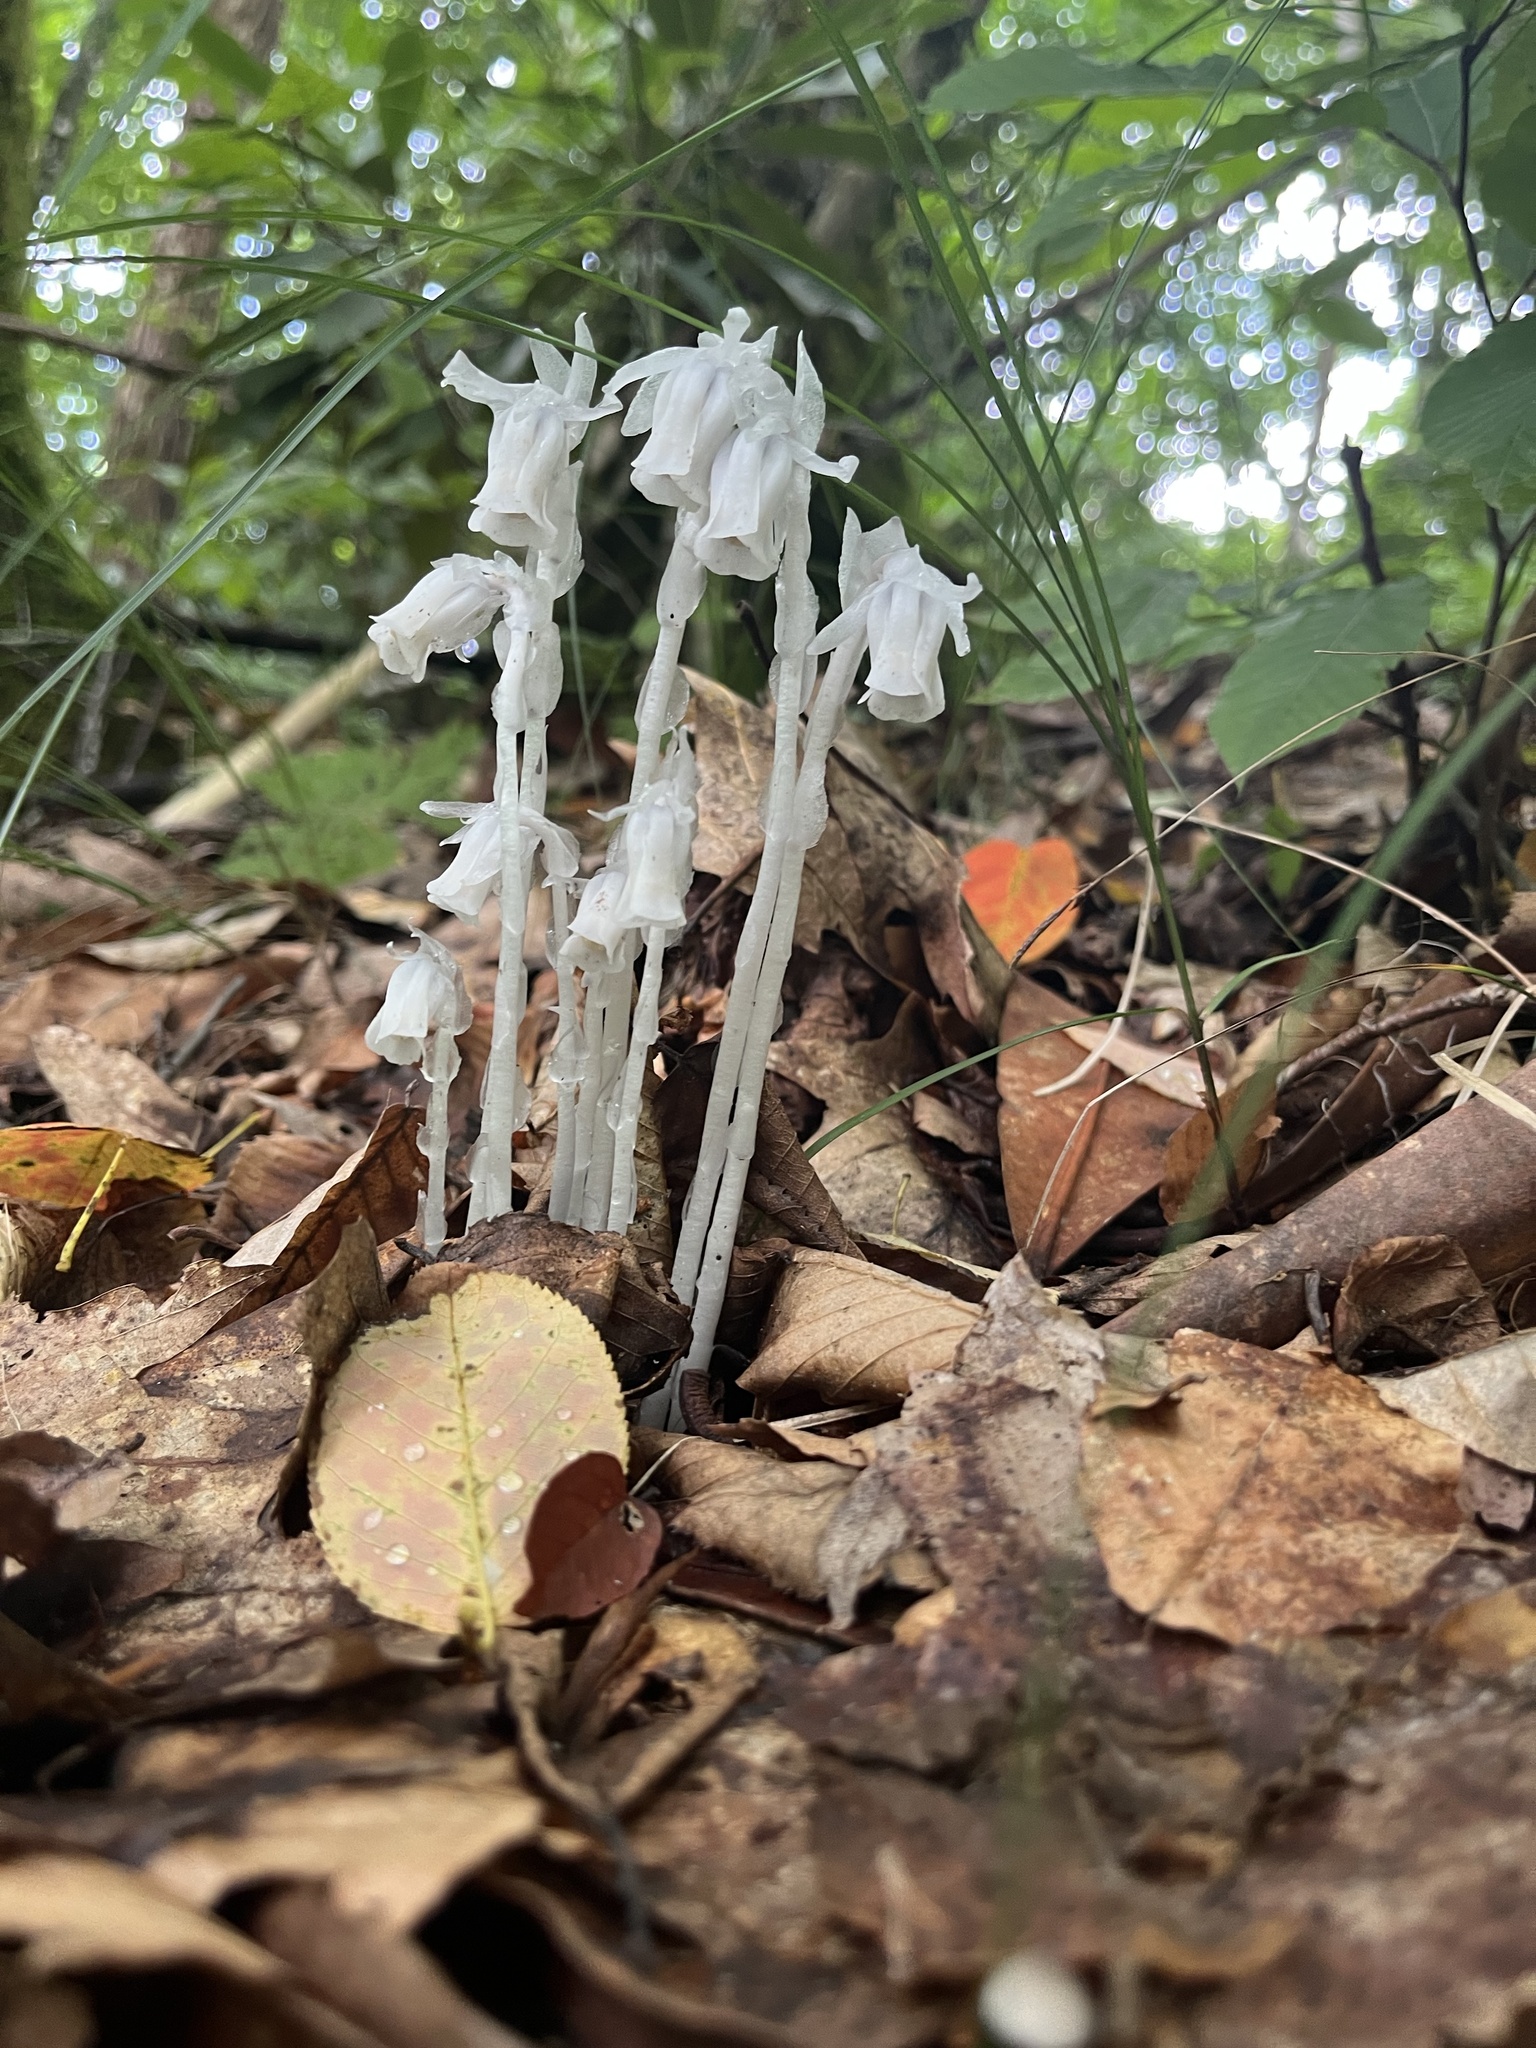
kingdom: Plantae
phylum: Tracheophyta
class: Magnoliopsida
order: Ericales
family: Ericaceae
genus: Monotropa
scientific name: Monotropa uniflora
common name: Convulsion root
